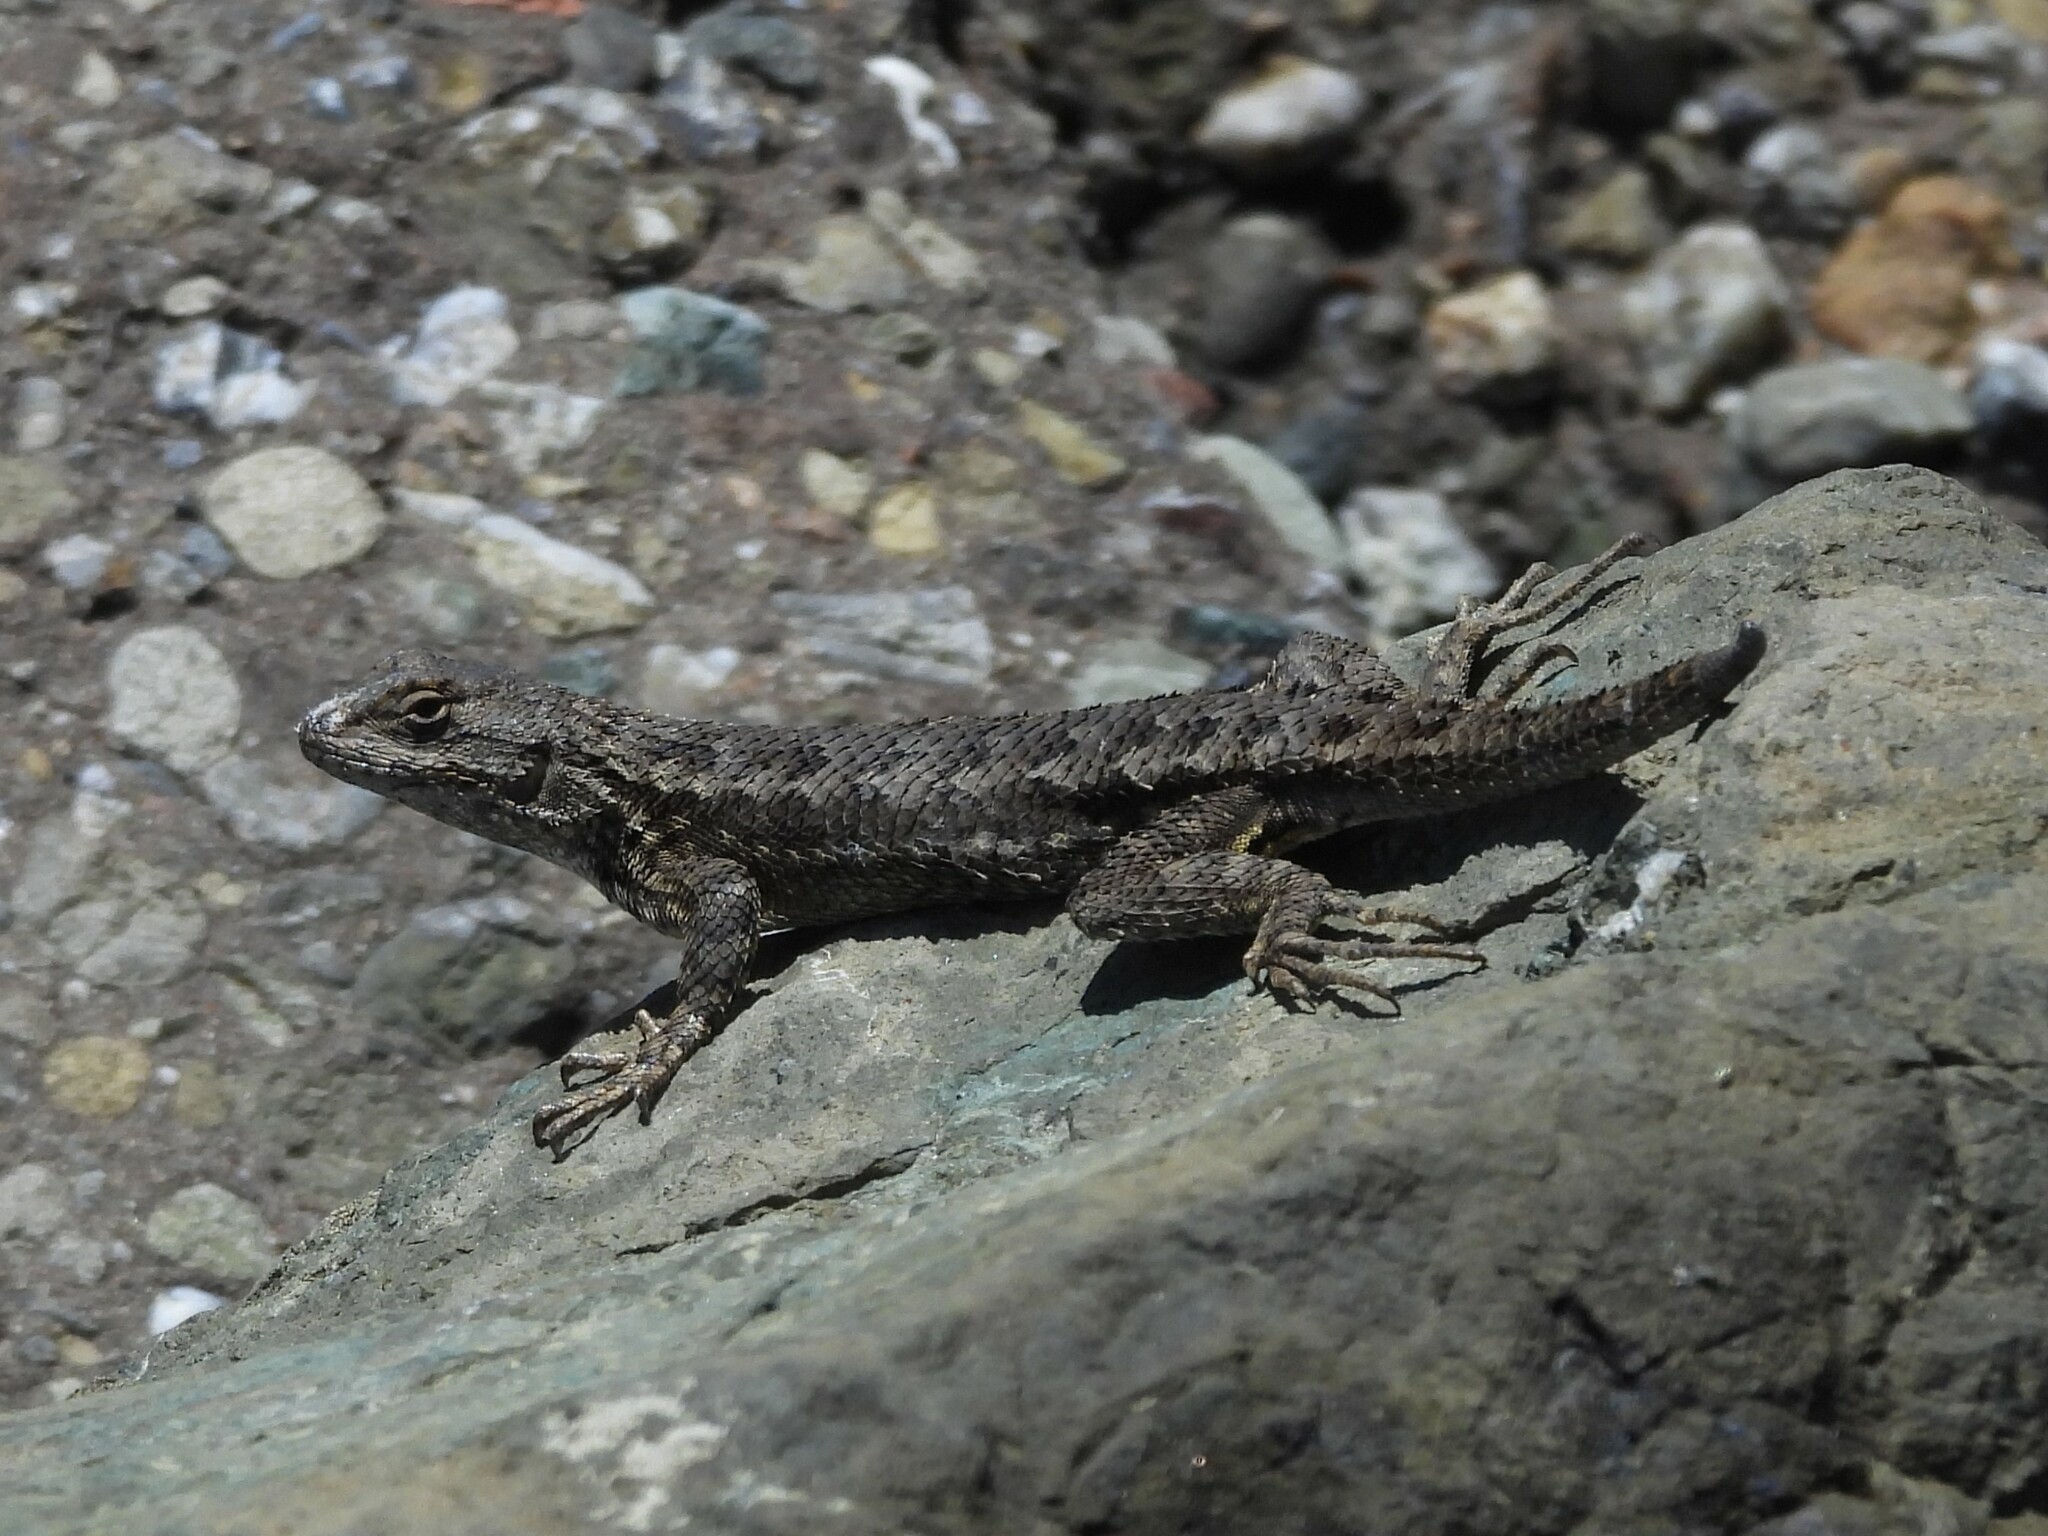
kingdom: Animalia
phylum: Chordata
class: Squamata
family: Phrynosomatidae
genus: Sceloporus
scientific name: Sceloporus occidentalis
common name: Western fence lizard
